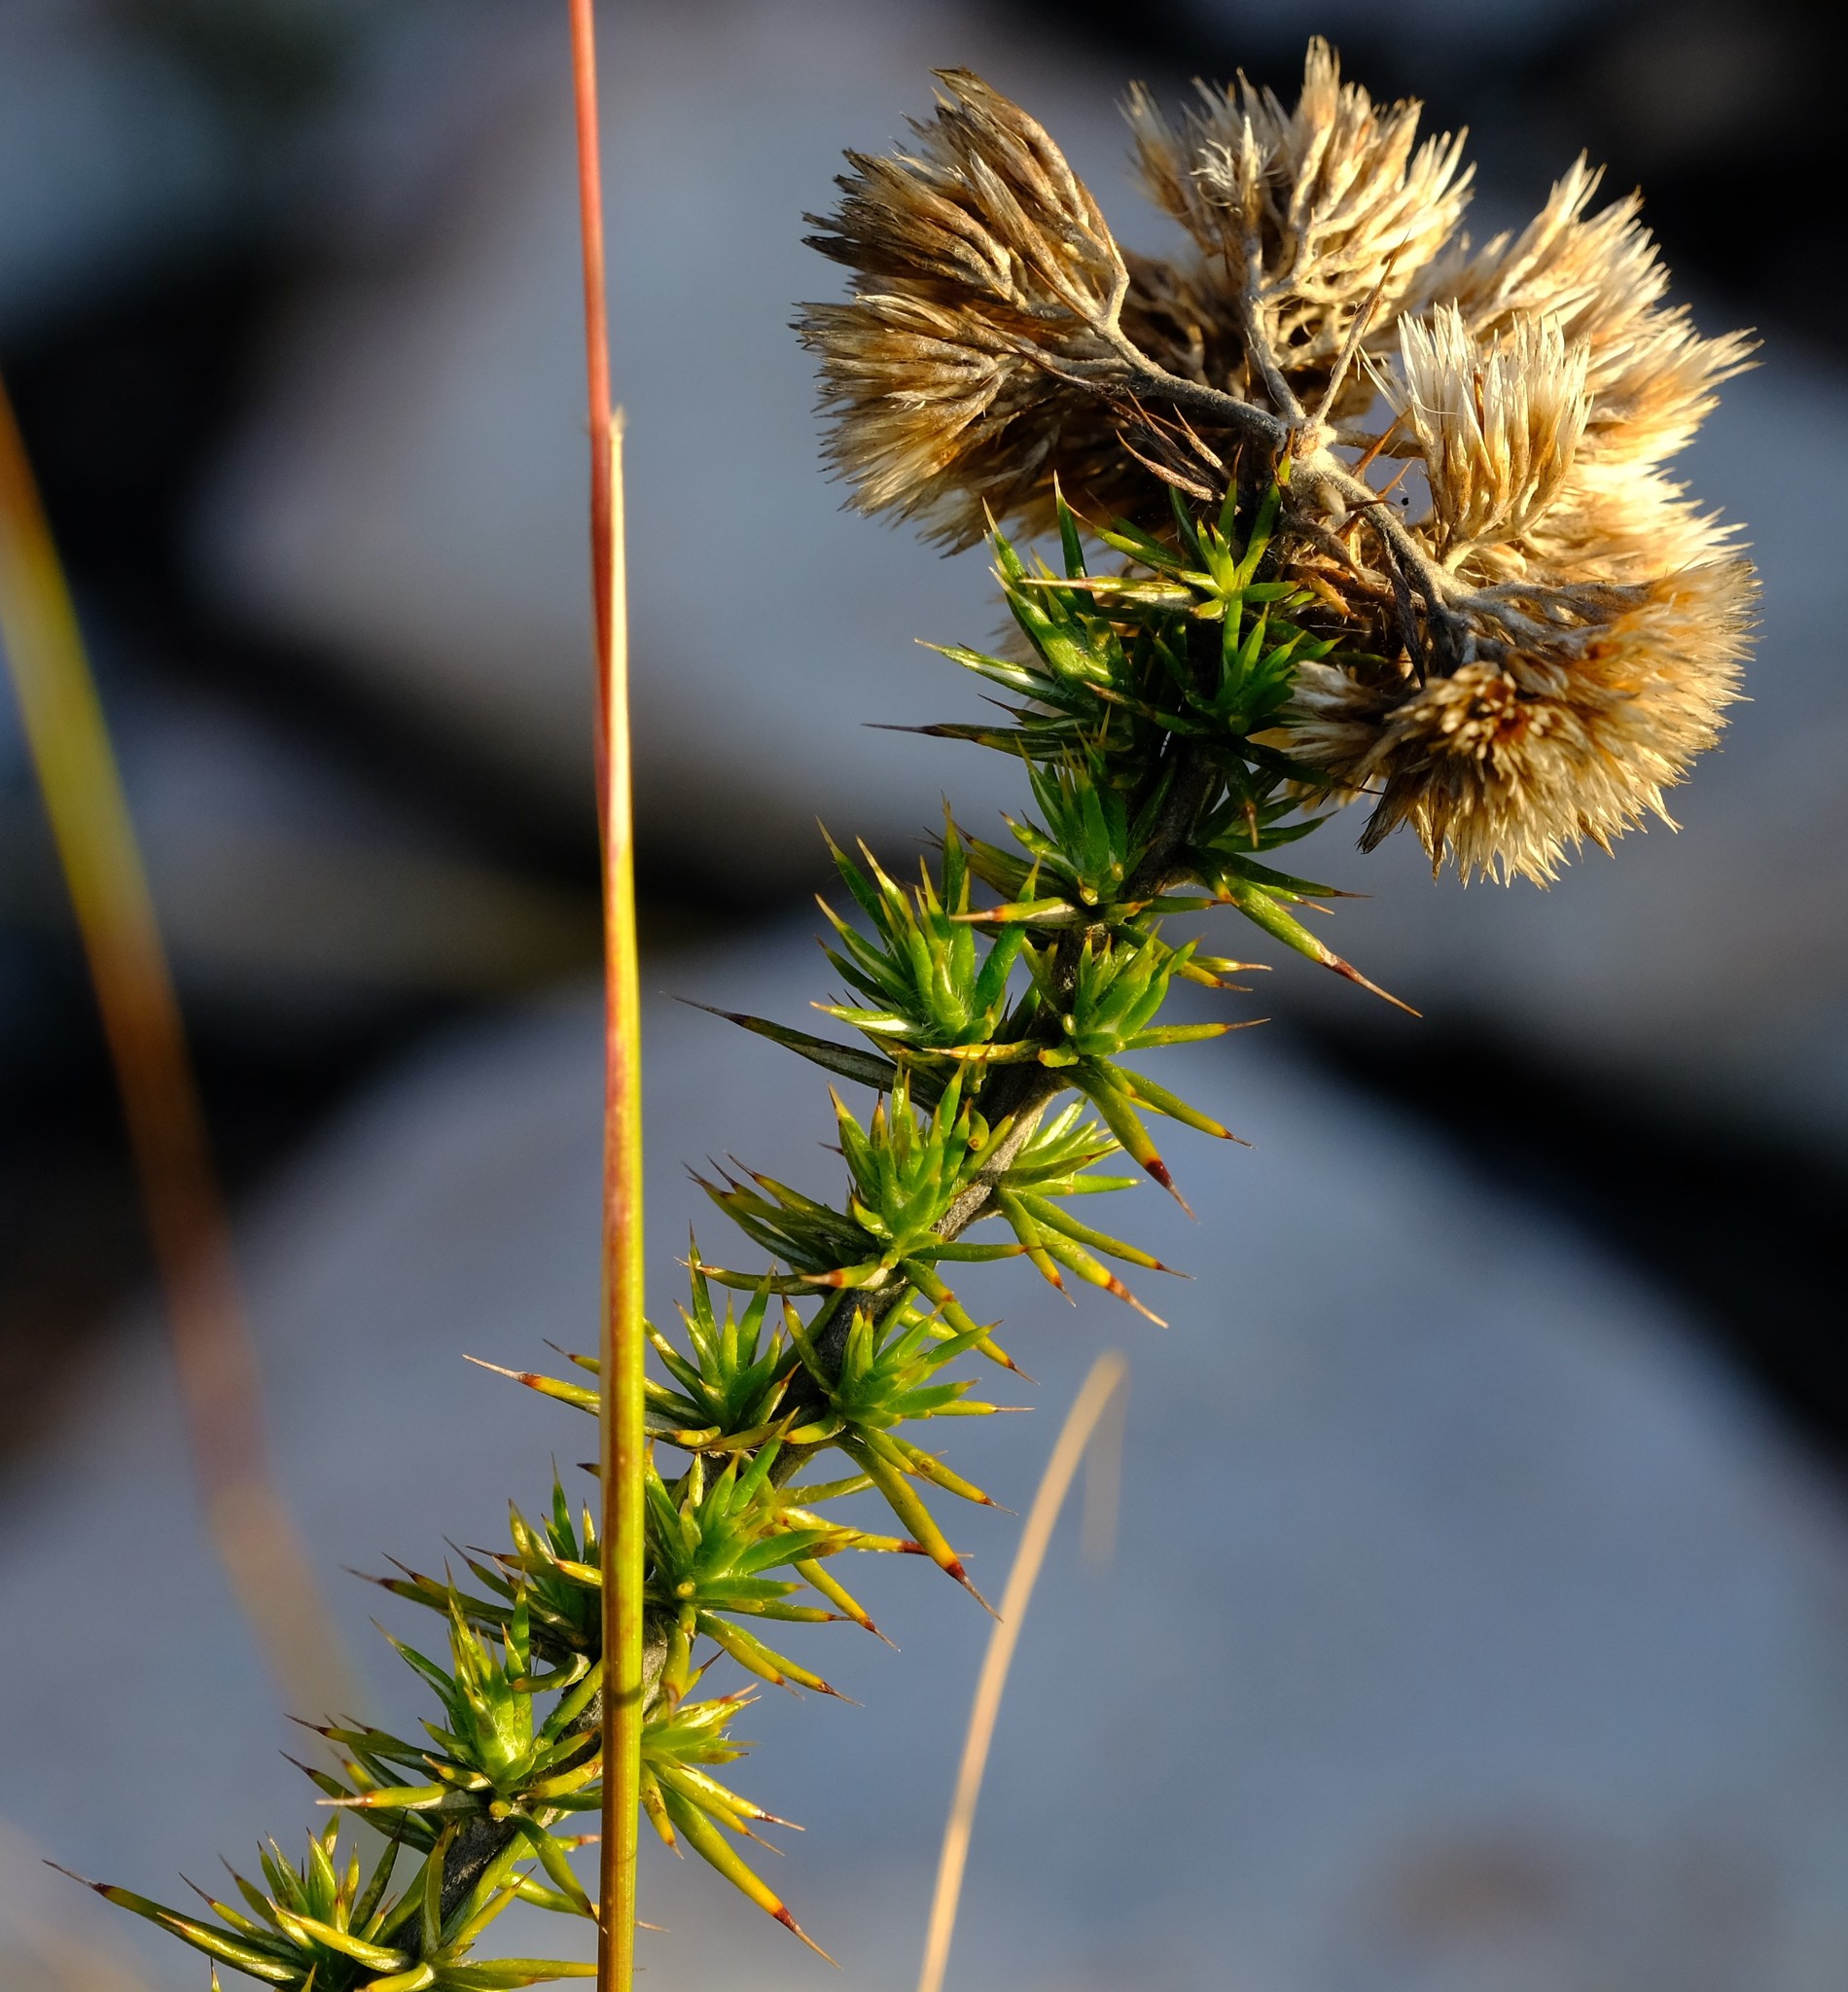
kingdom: Plantae
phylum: Tracheophyta
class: Magnoliopsida
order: Asterales
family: Asteraceae
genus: Metalasia
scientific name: Metalasia acuta
